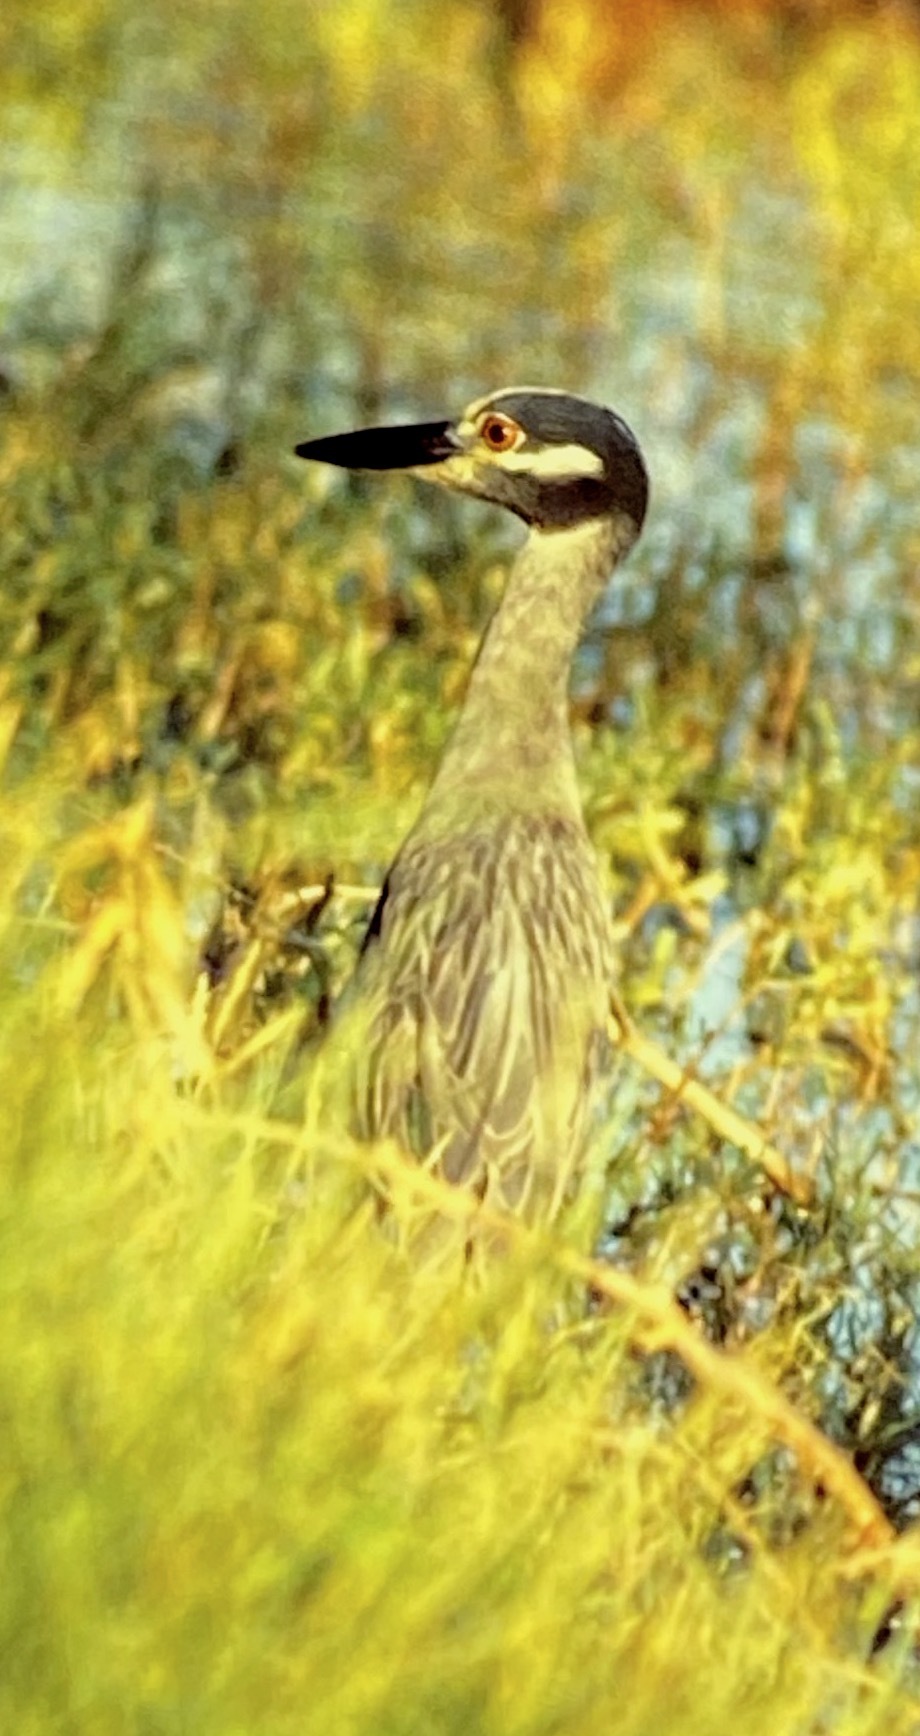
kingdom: Animalia
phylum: Chordata
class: Aves
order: Pelecaniformes
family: Ardeidae
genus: Nyctanassa
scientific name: Nyctanassa violacea
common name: Yellow-crowned night heron
